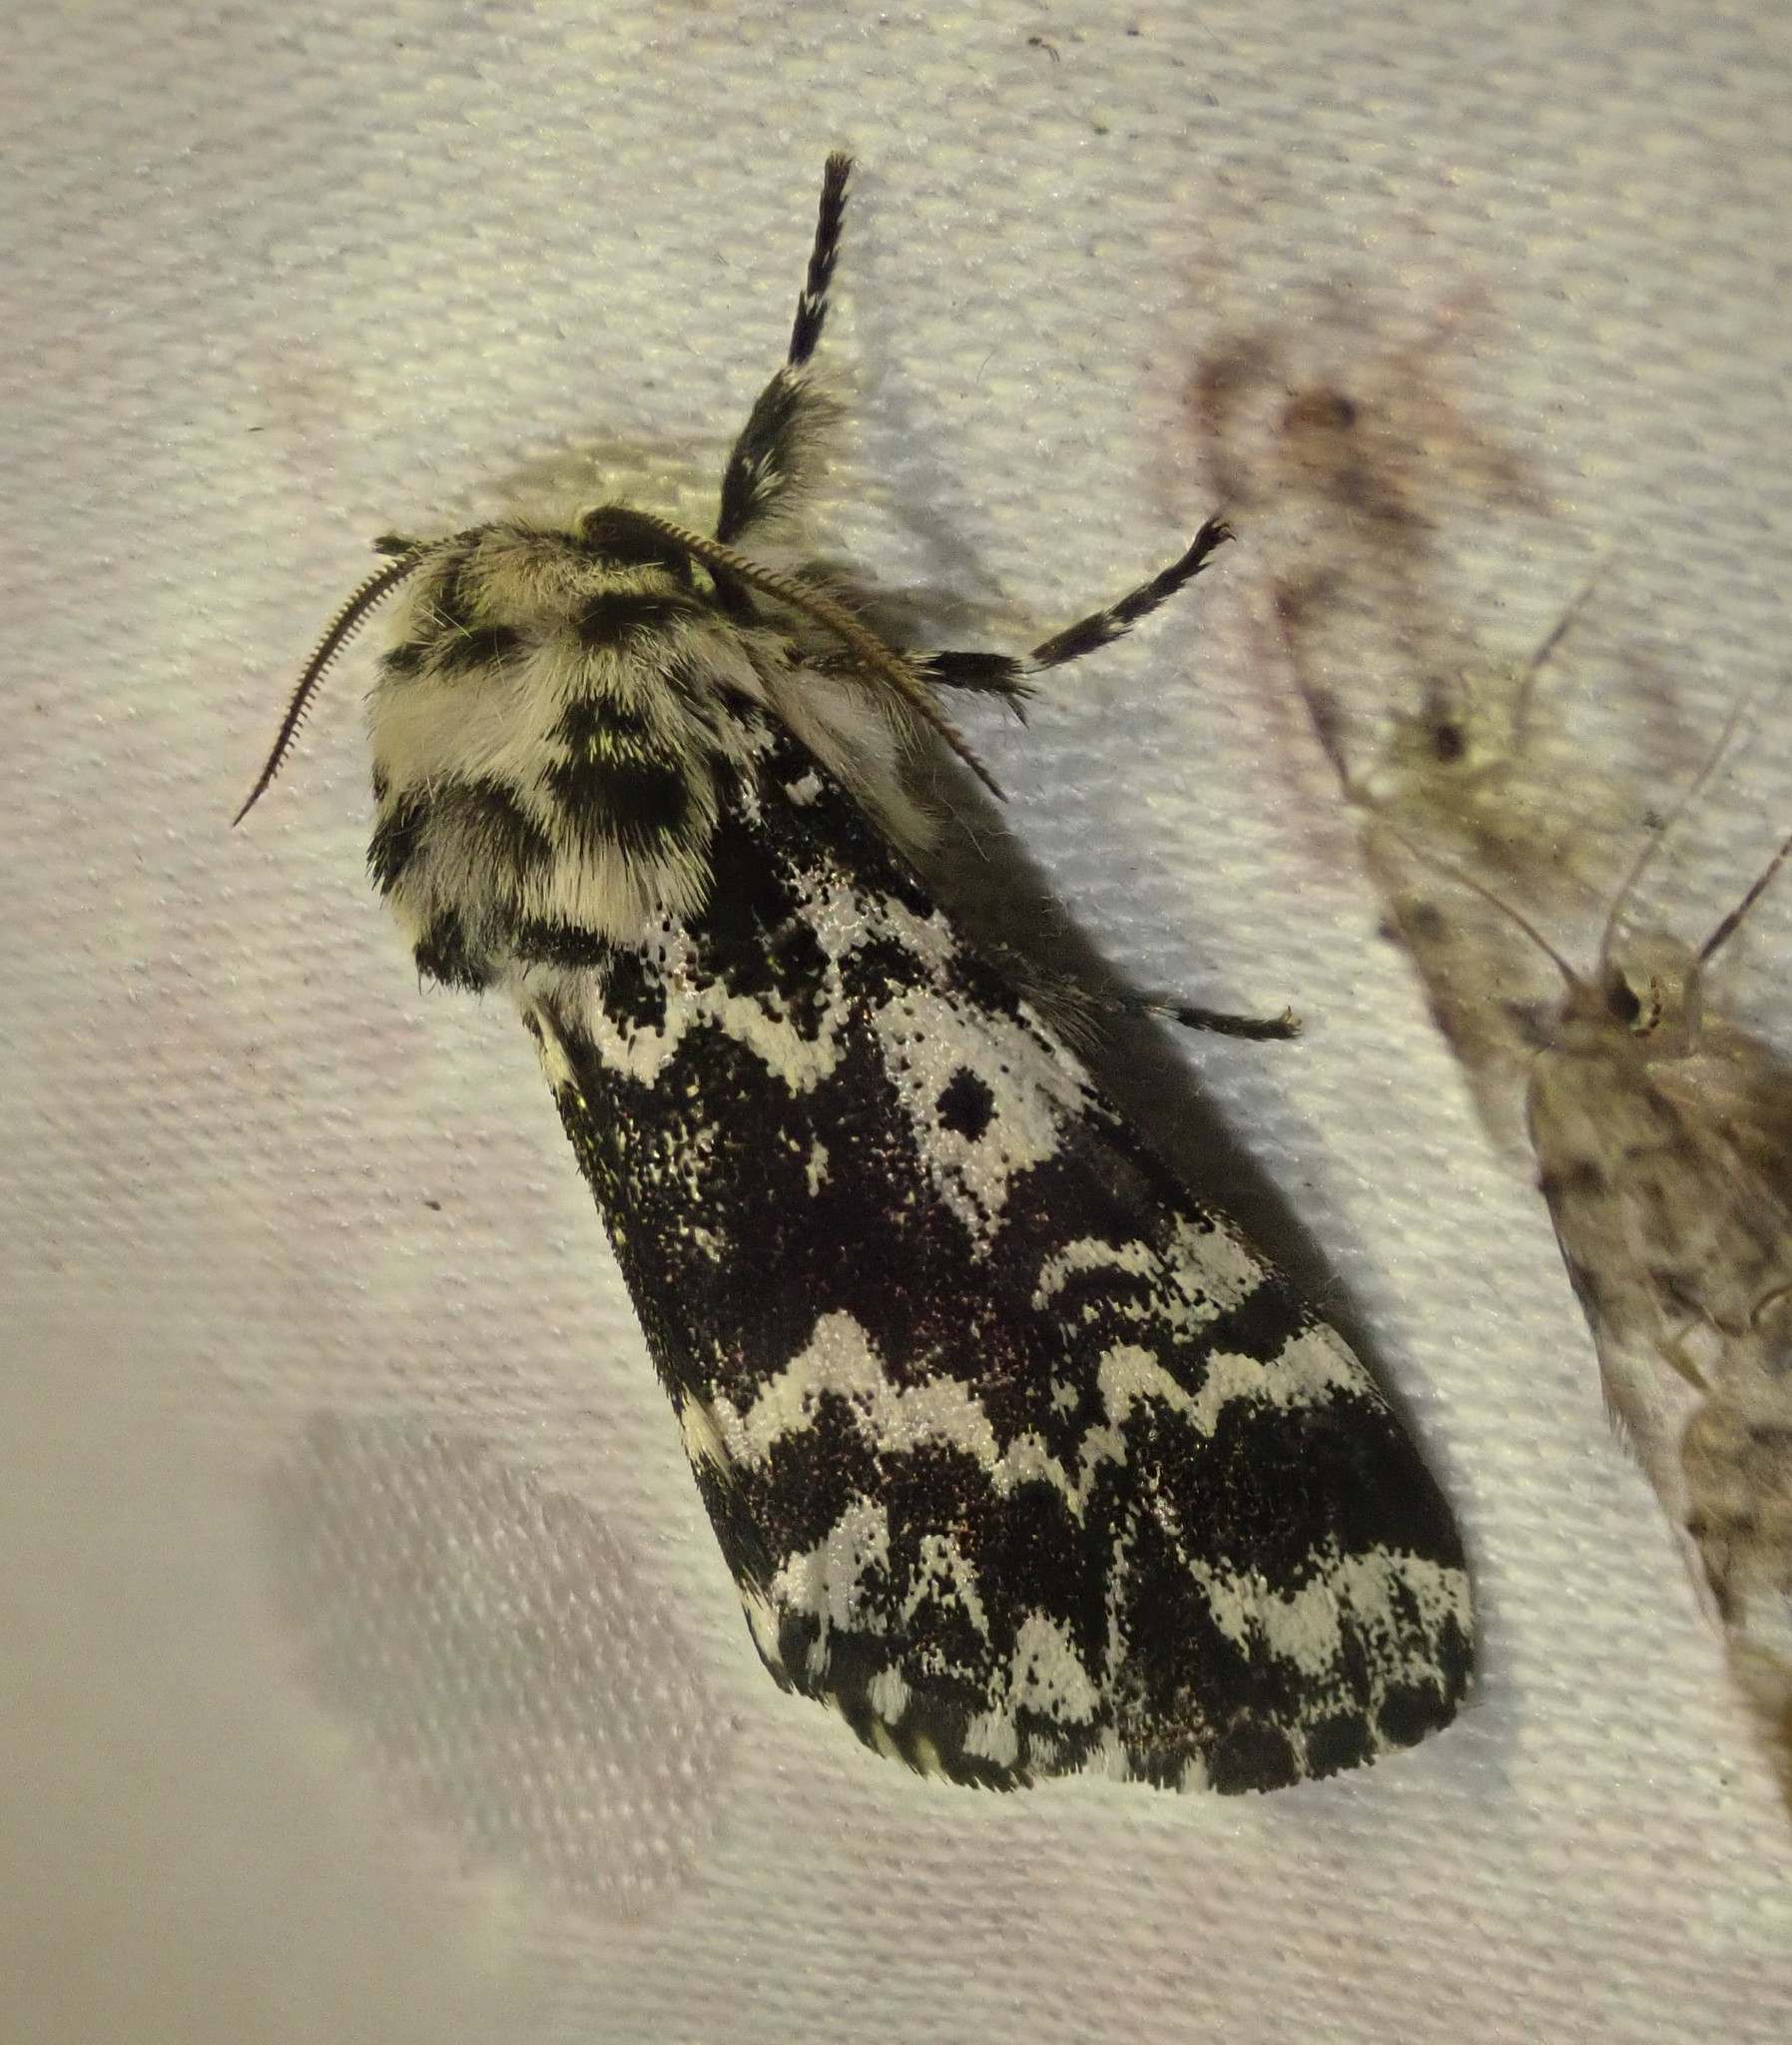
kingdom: Animalia
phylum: Arthropoda
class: Insecta
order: Lepidoptera
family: Noctuidae
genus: Panthea
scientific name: Panthea coenobita
